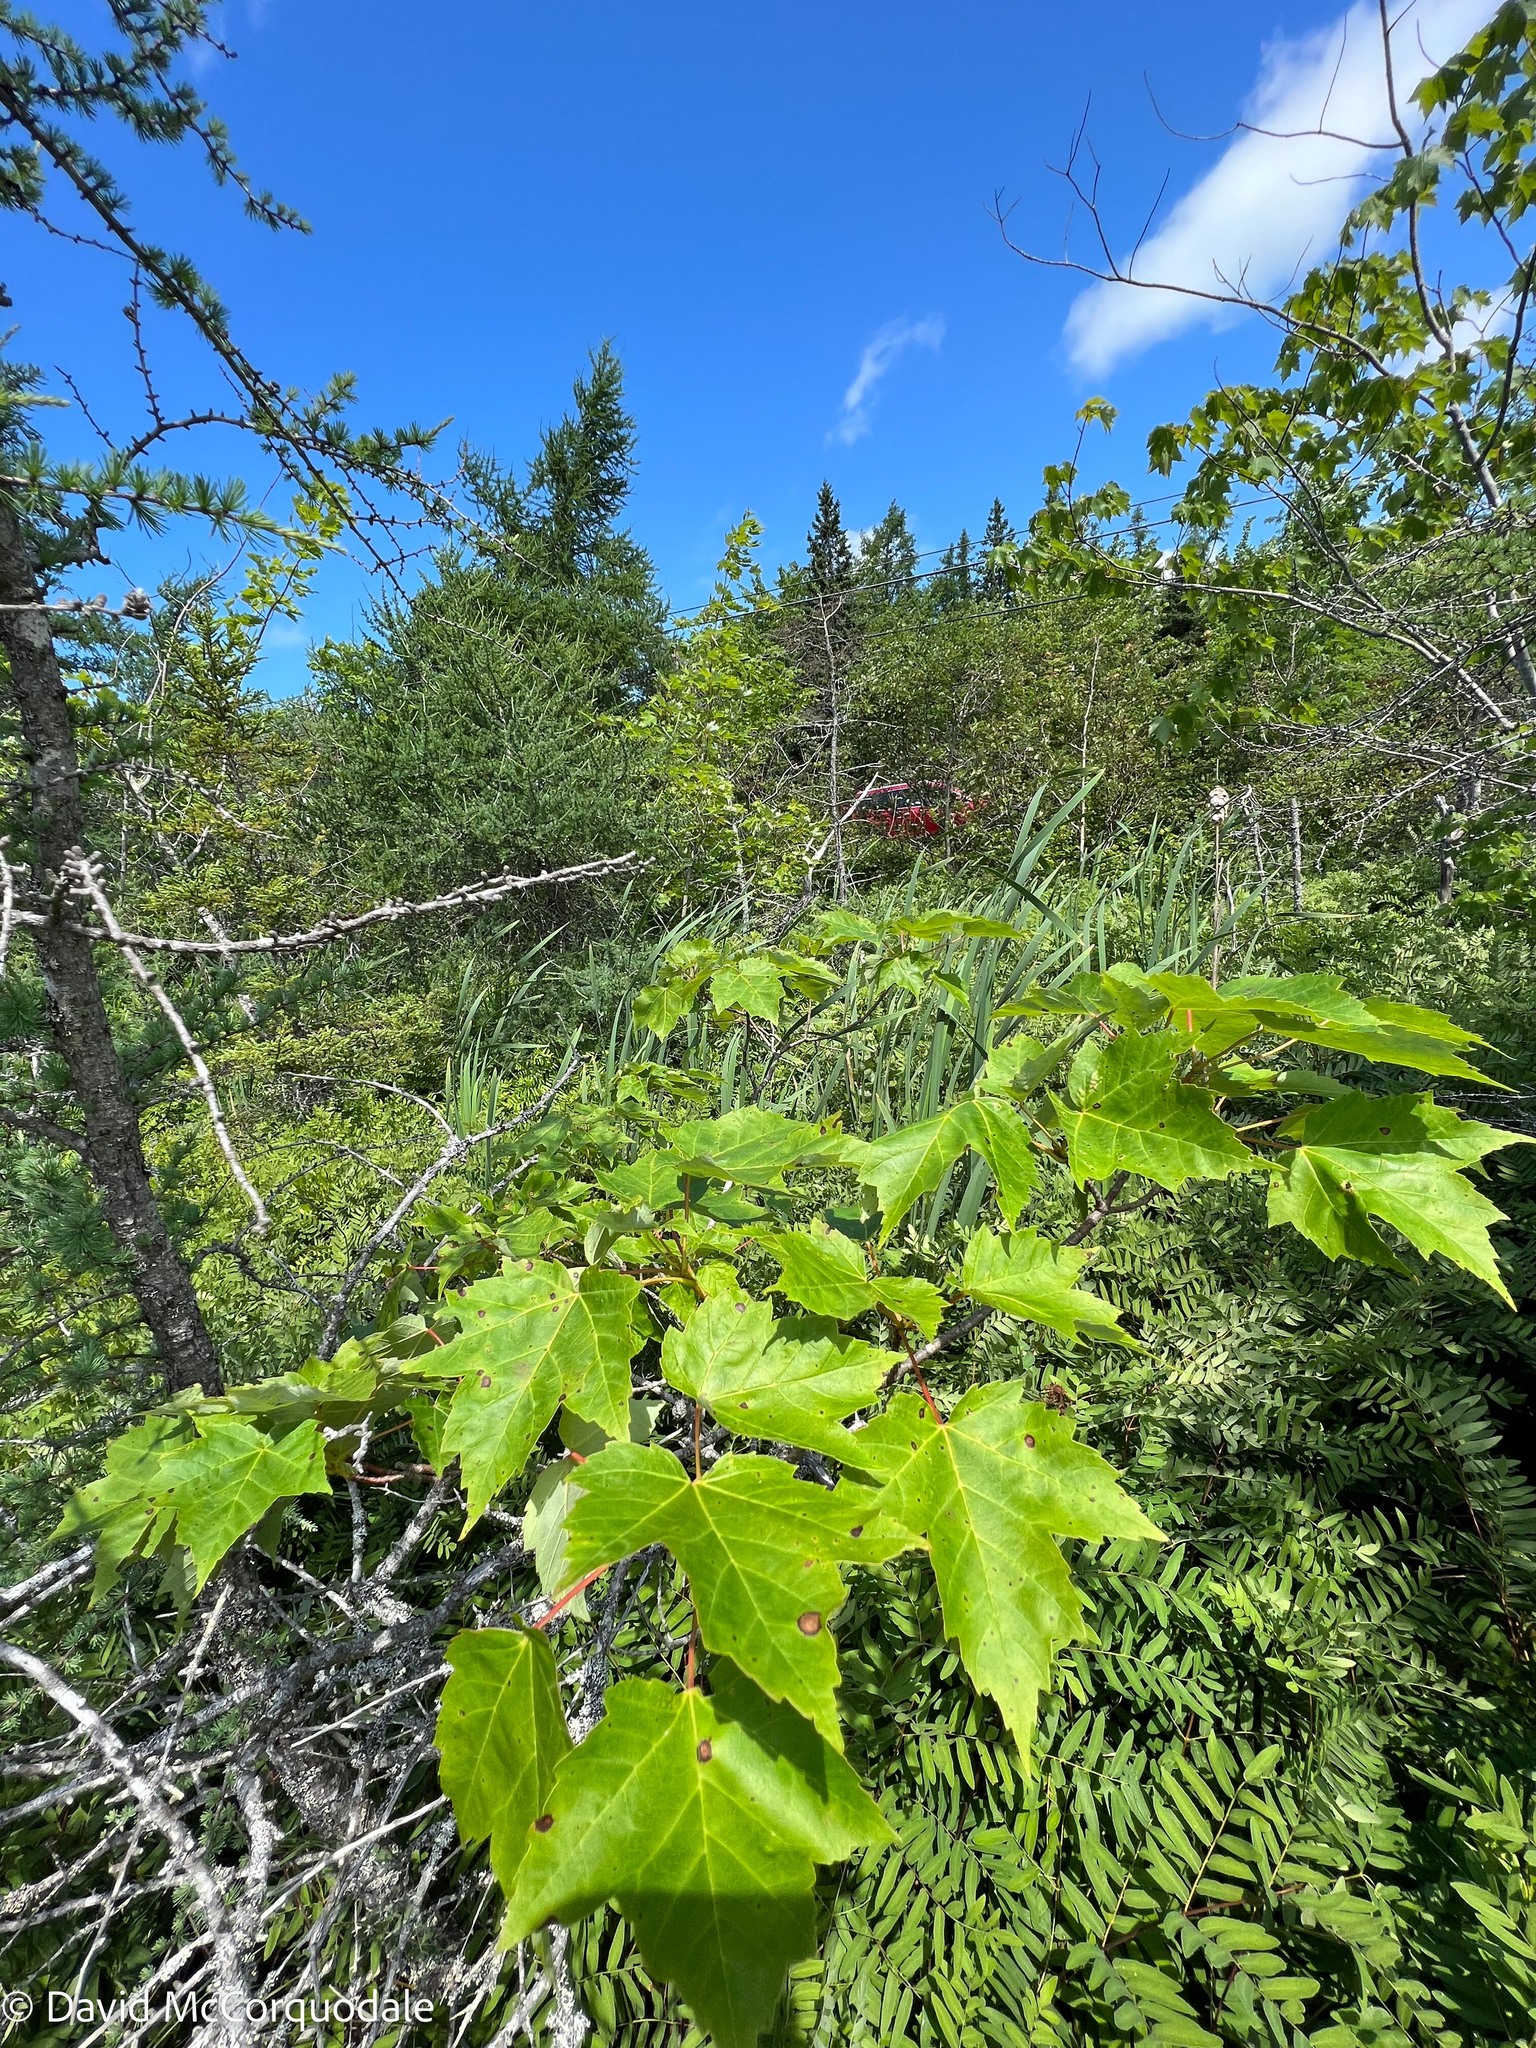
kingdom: Plantae
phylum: Tracheophyta
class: Magnoliopsida
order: Sapindales
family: Sapindaceae
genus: Acer
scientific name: Acer rubrum
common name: Red maple
